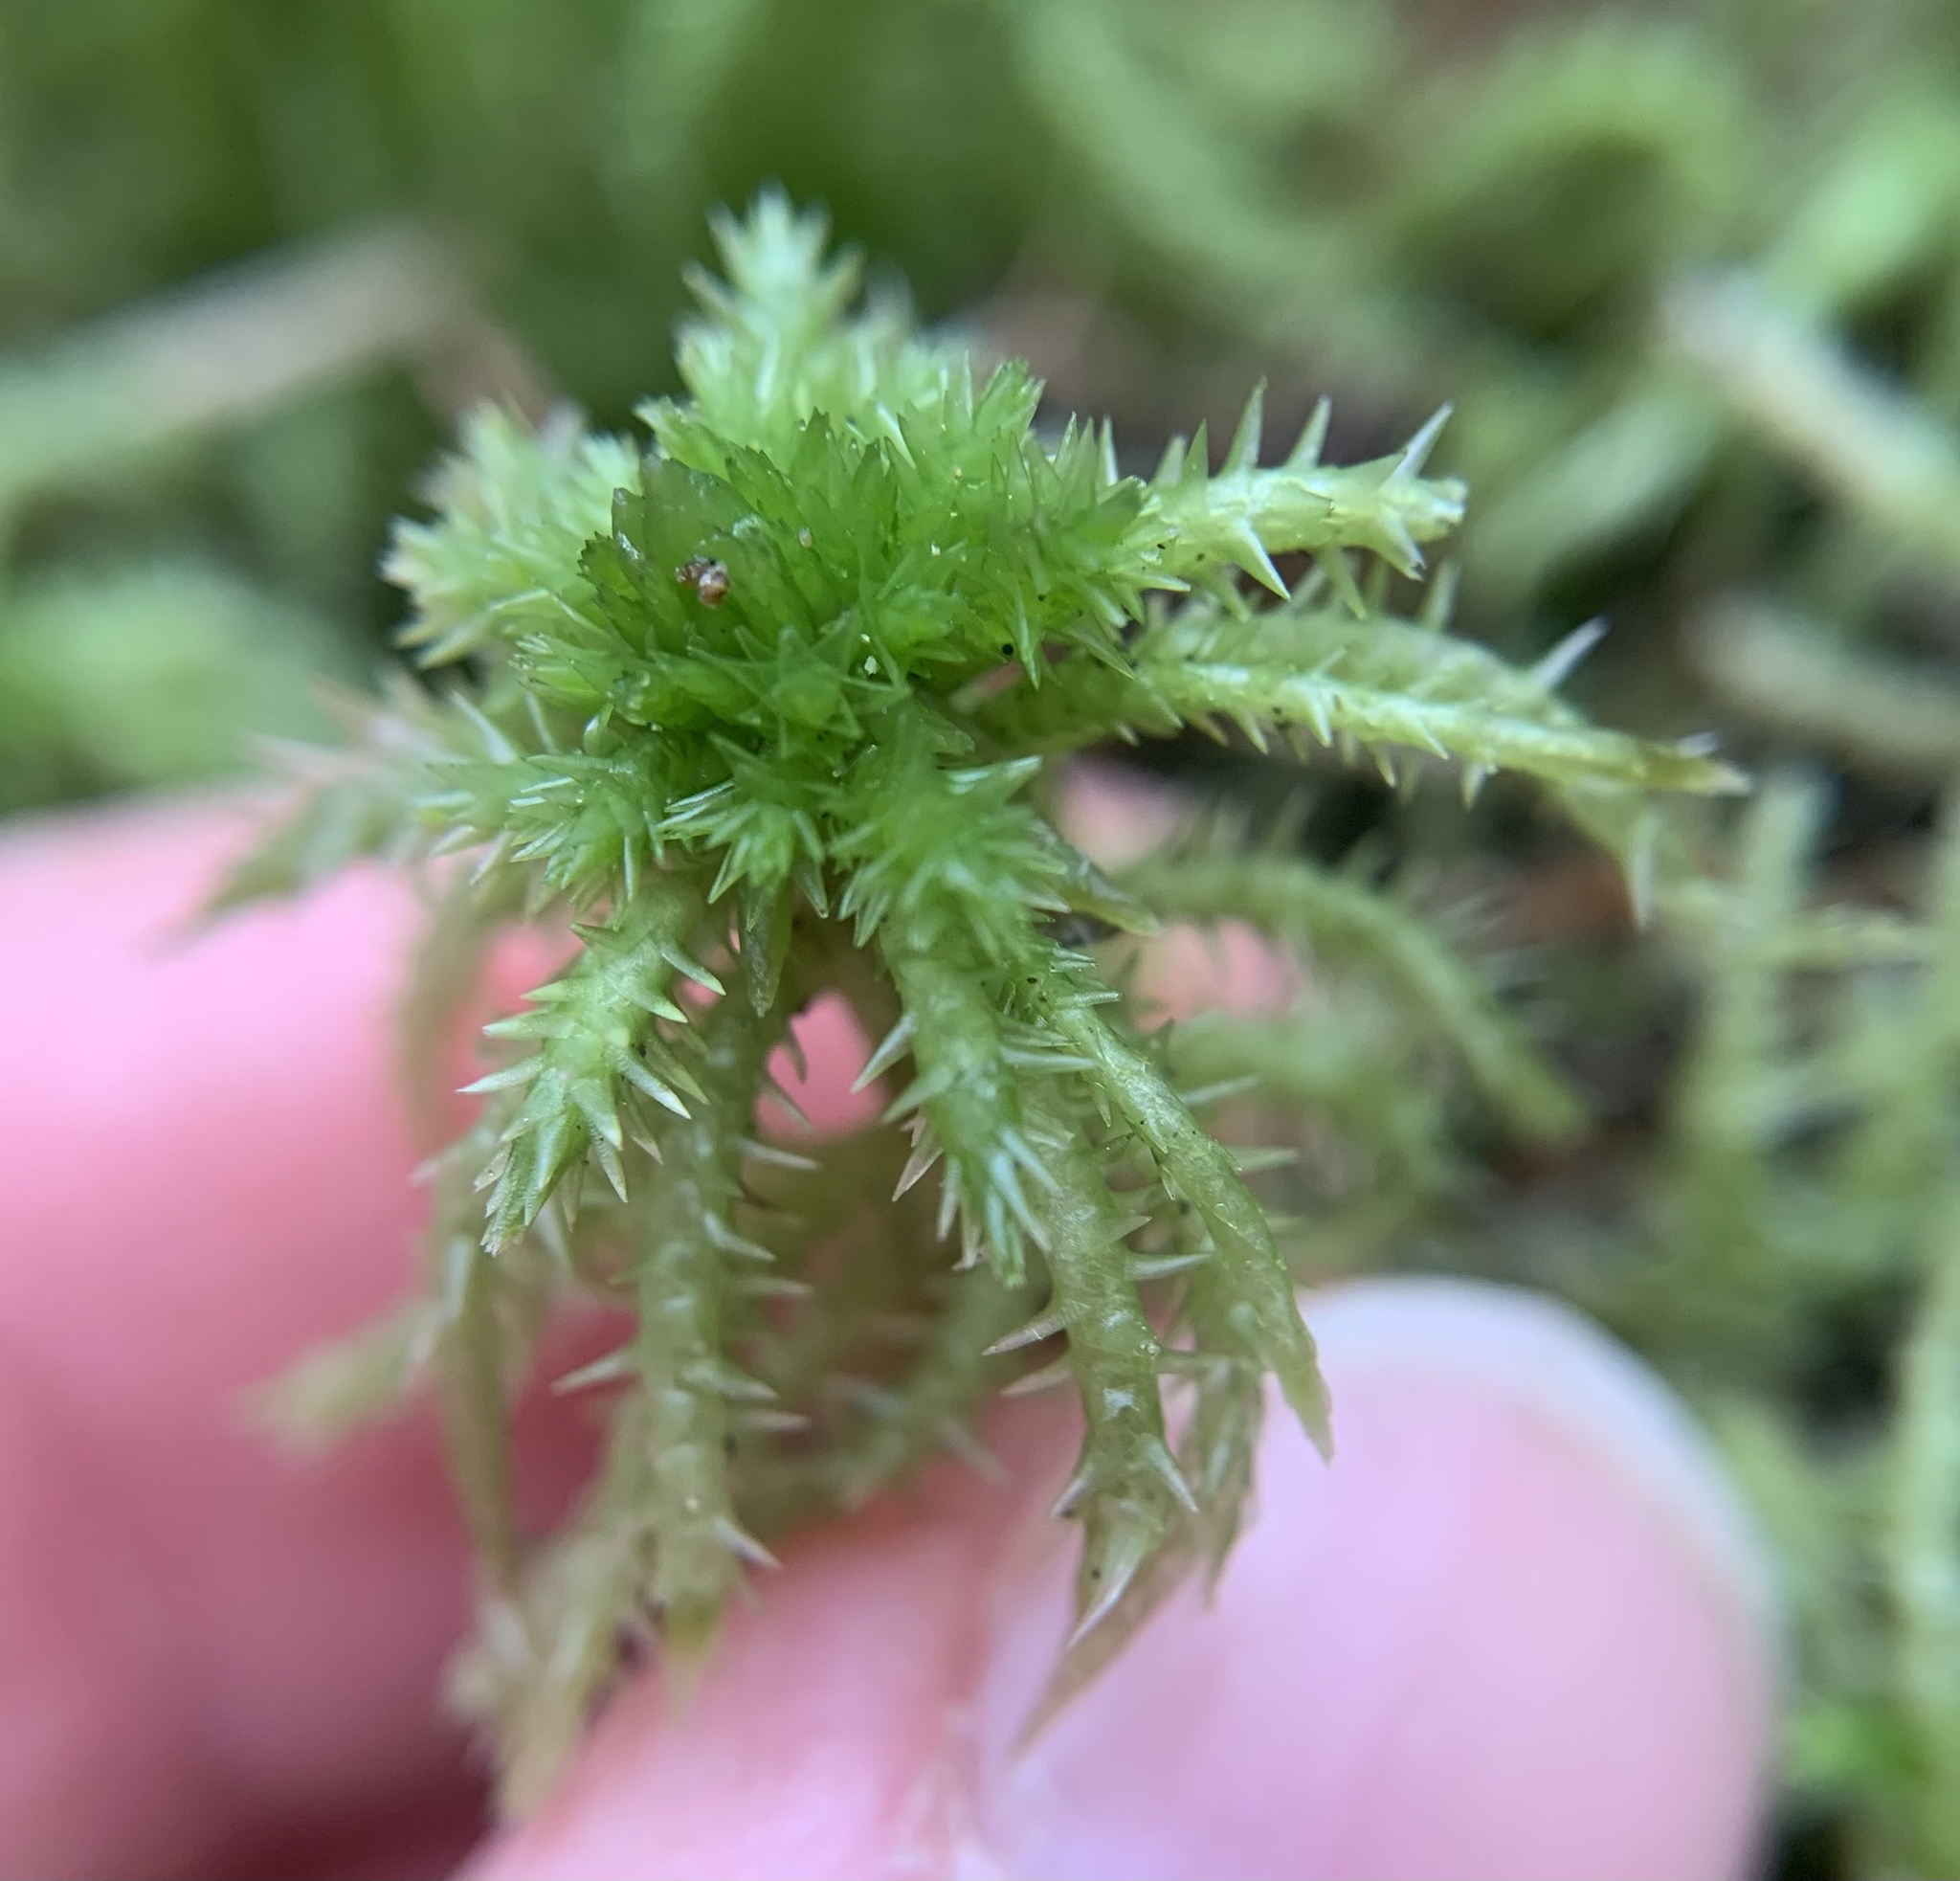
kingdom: Plantae
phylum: Bryophyta
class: Sphagnopsida
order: Sphagnales
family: Sphagnaceae
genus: Sphagnum
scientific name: Sphagnum squarrosum
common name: Shaggy peat moss
